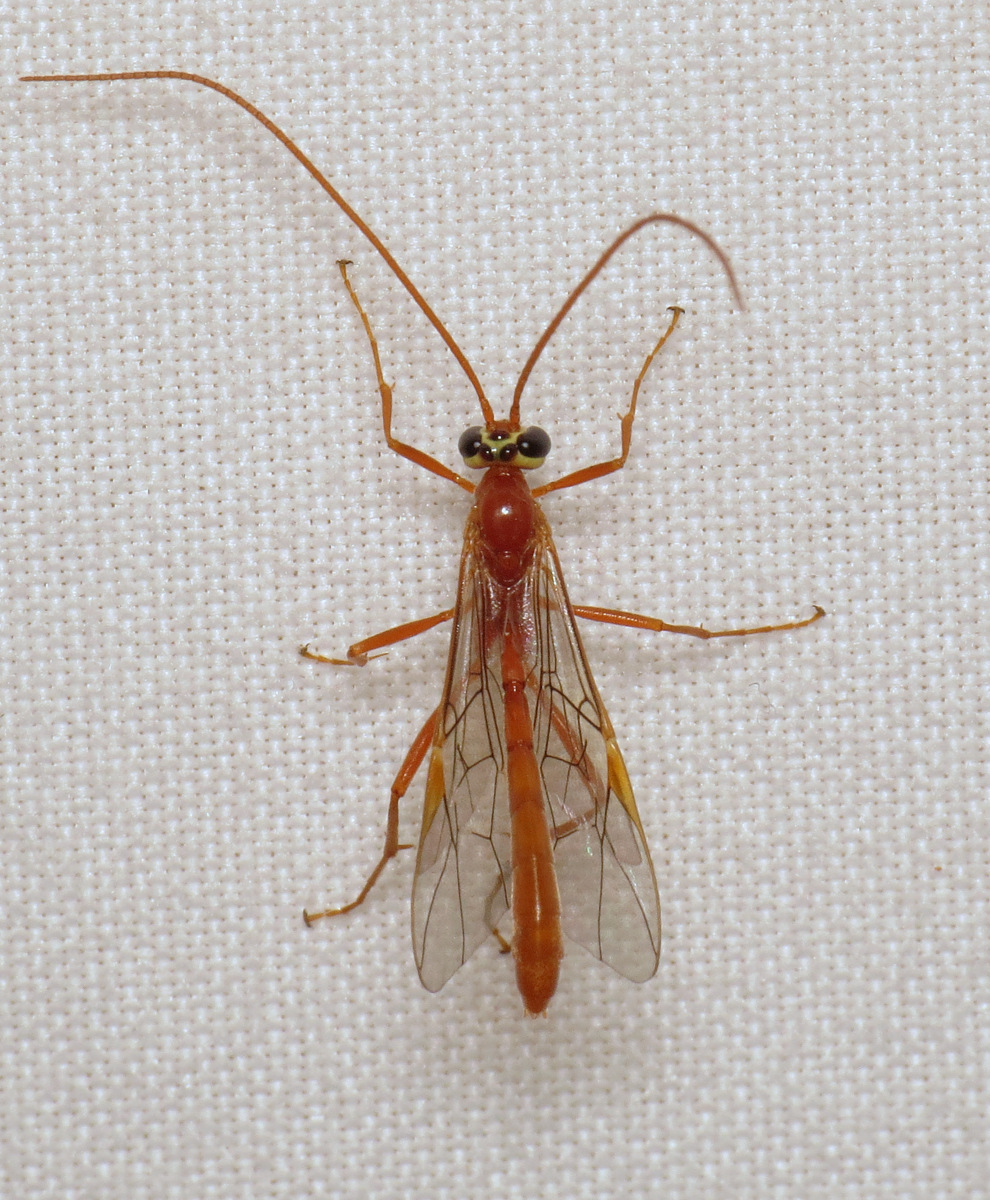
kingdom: Animalia
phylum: Arthropoda
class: Insecta
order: Hymenoptera
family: Ichneumonidae
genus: Ophion
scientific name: Ophion
